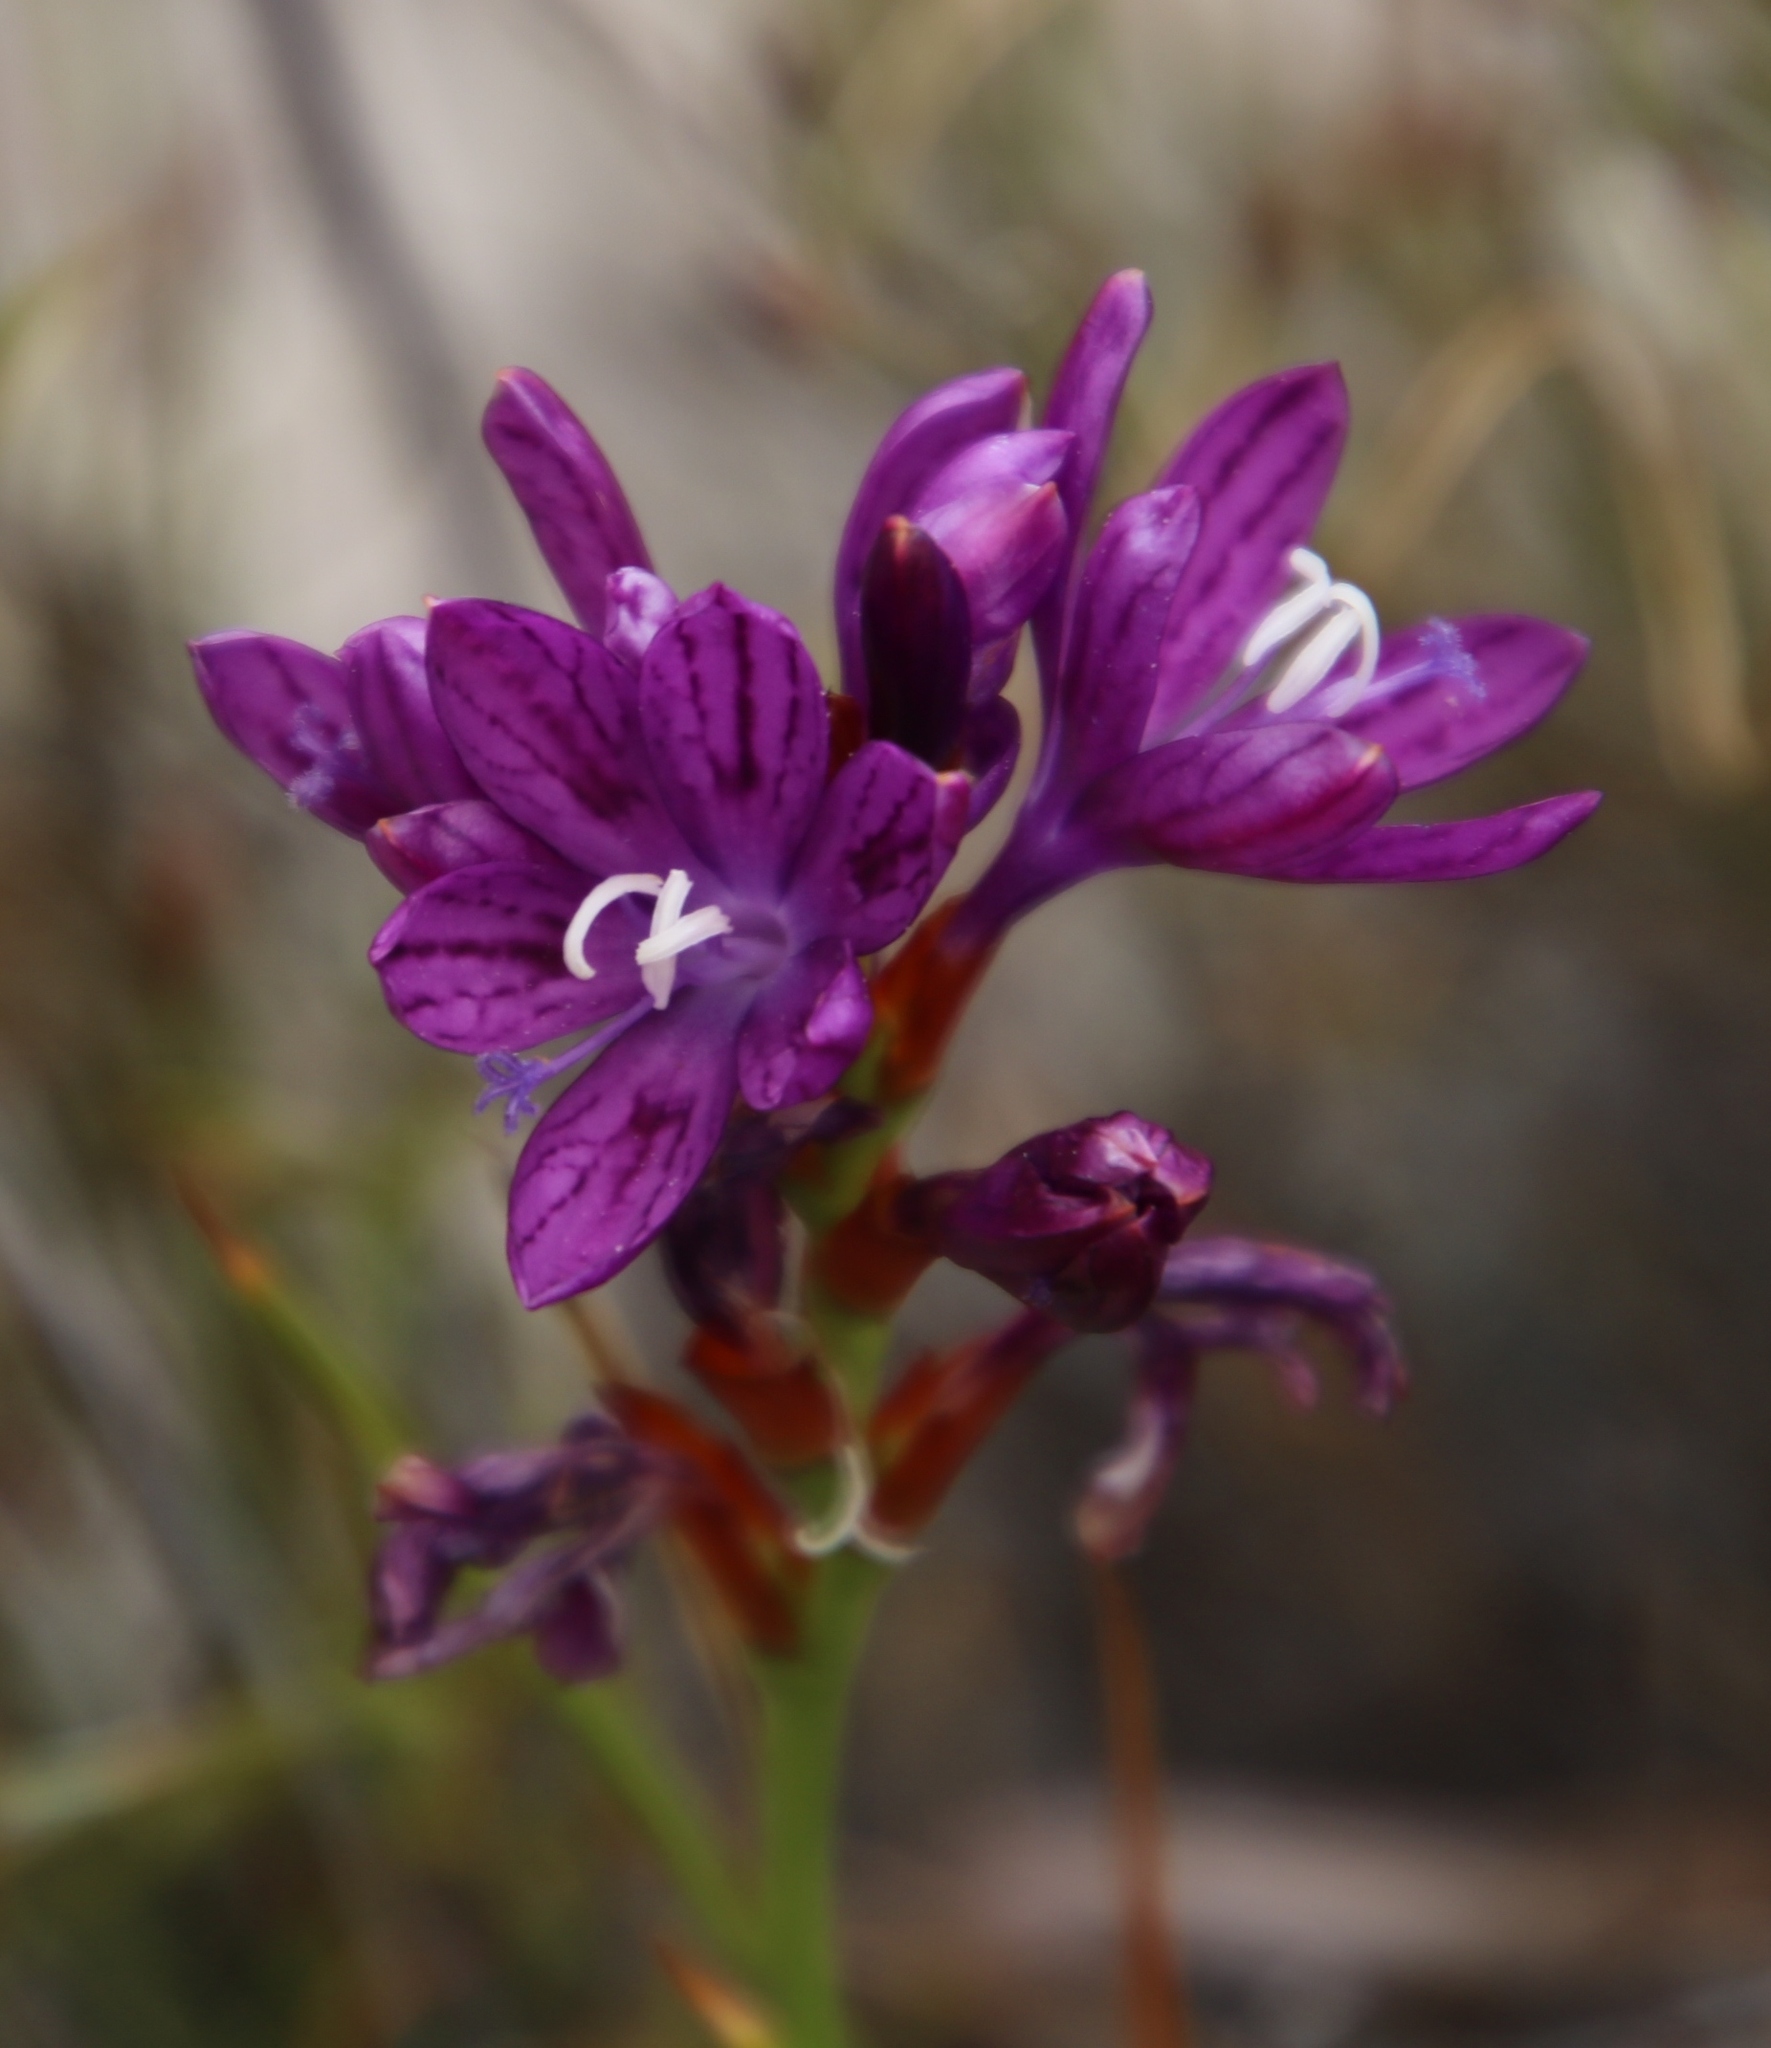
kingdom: Plantae
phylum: Tracheophyta
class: Liliopsida
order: Asparagales
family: Iridaceae
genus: Thereianthus
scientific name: Thereianthus bracteolatus
